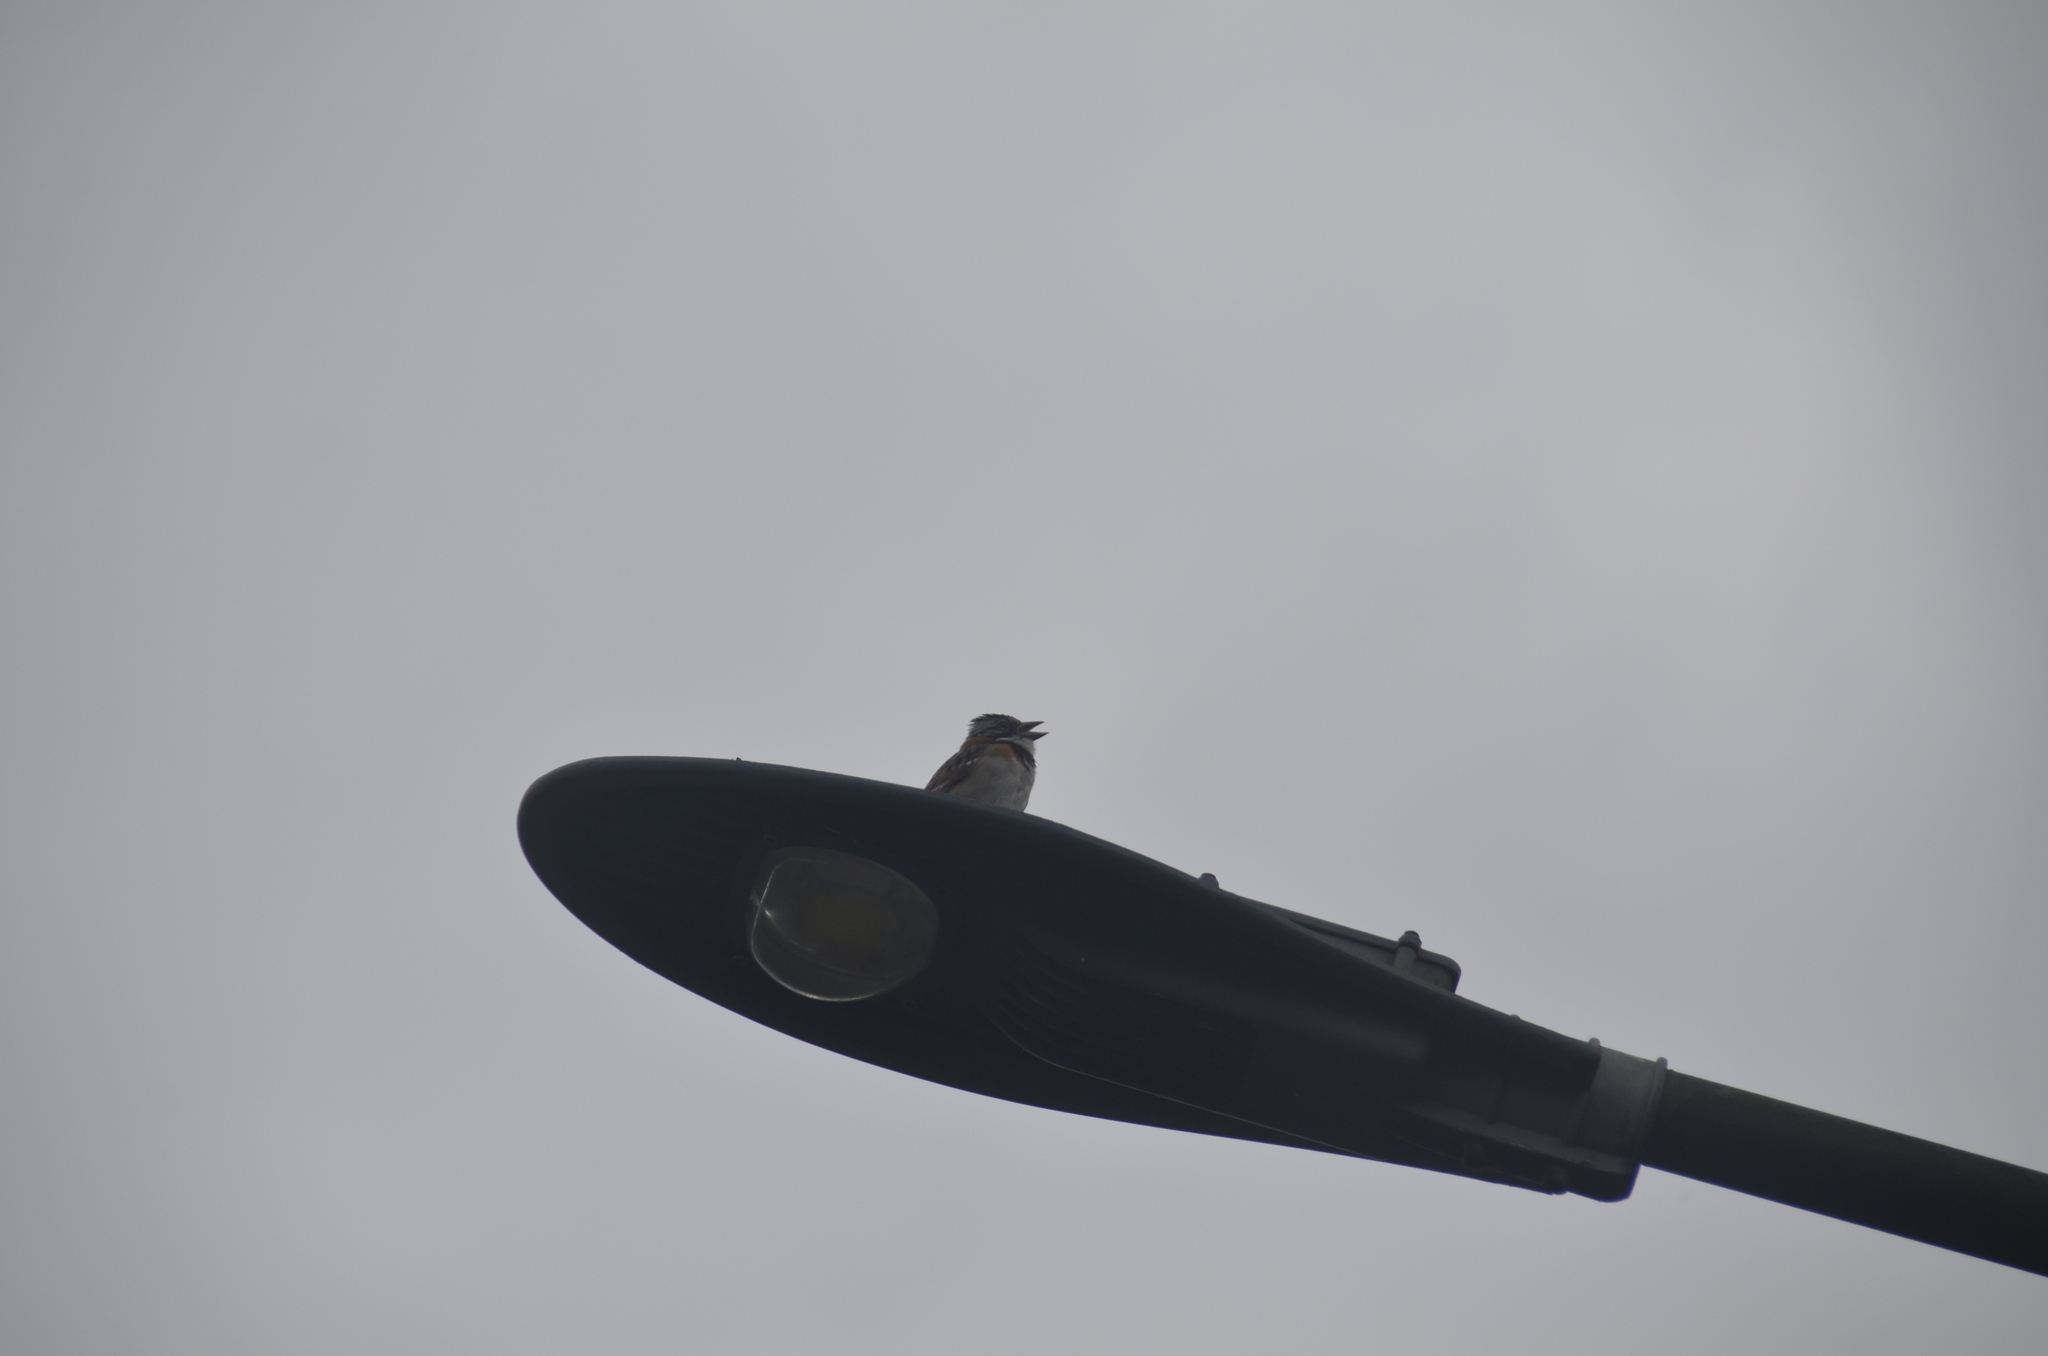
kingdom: Animalia
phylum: Chordata
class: Aves
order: Passeriformes
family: Passerellidae
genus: Zonotrichia
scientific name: Zonotrichia capensis
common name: Rufous-collared sparrow
